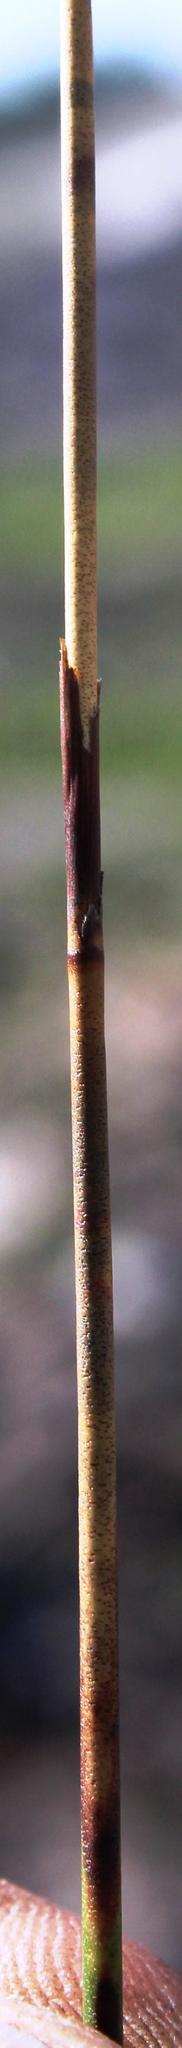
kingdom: Plantae
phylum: Tracheophyta
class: Liliopsida
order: Poales
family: Restionaceae
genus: Thamnochortus
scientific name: Thamnochortus bachmannii
